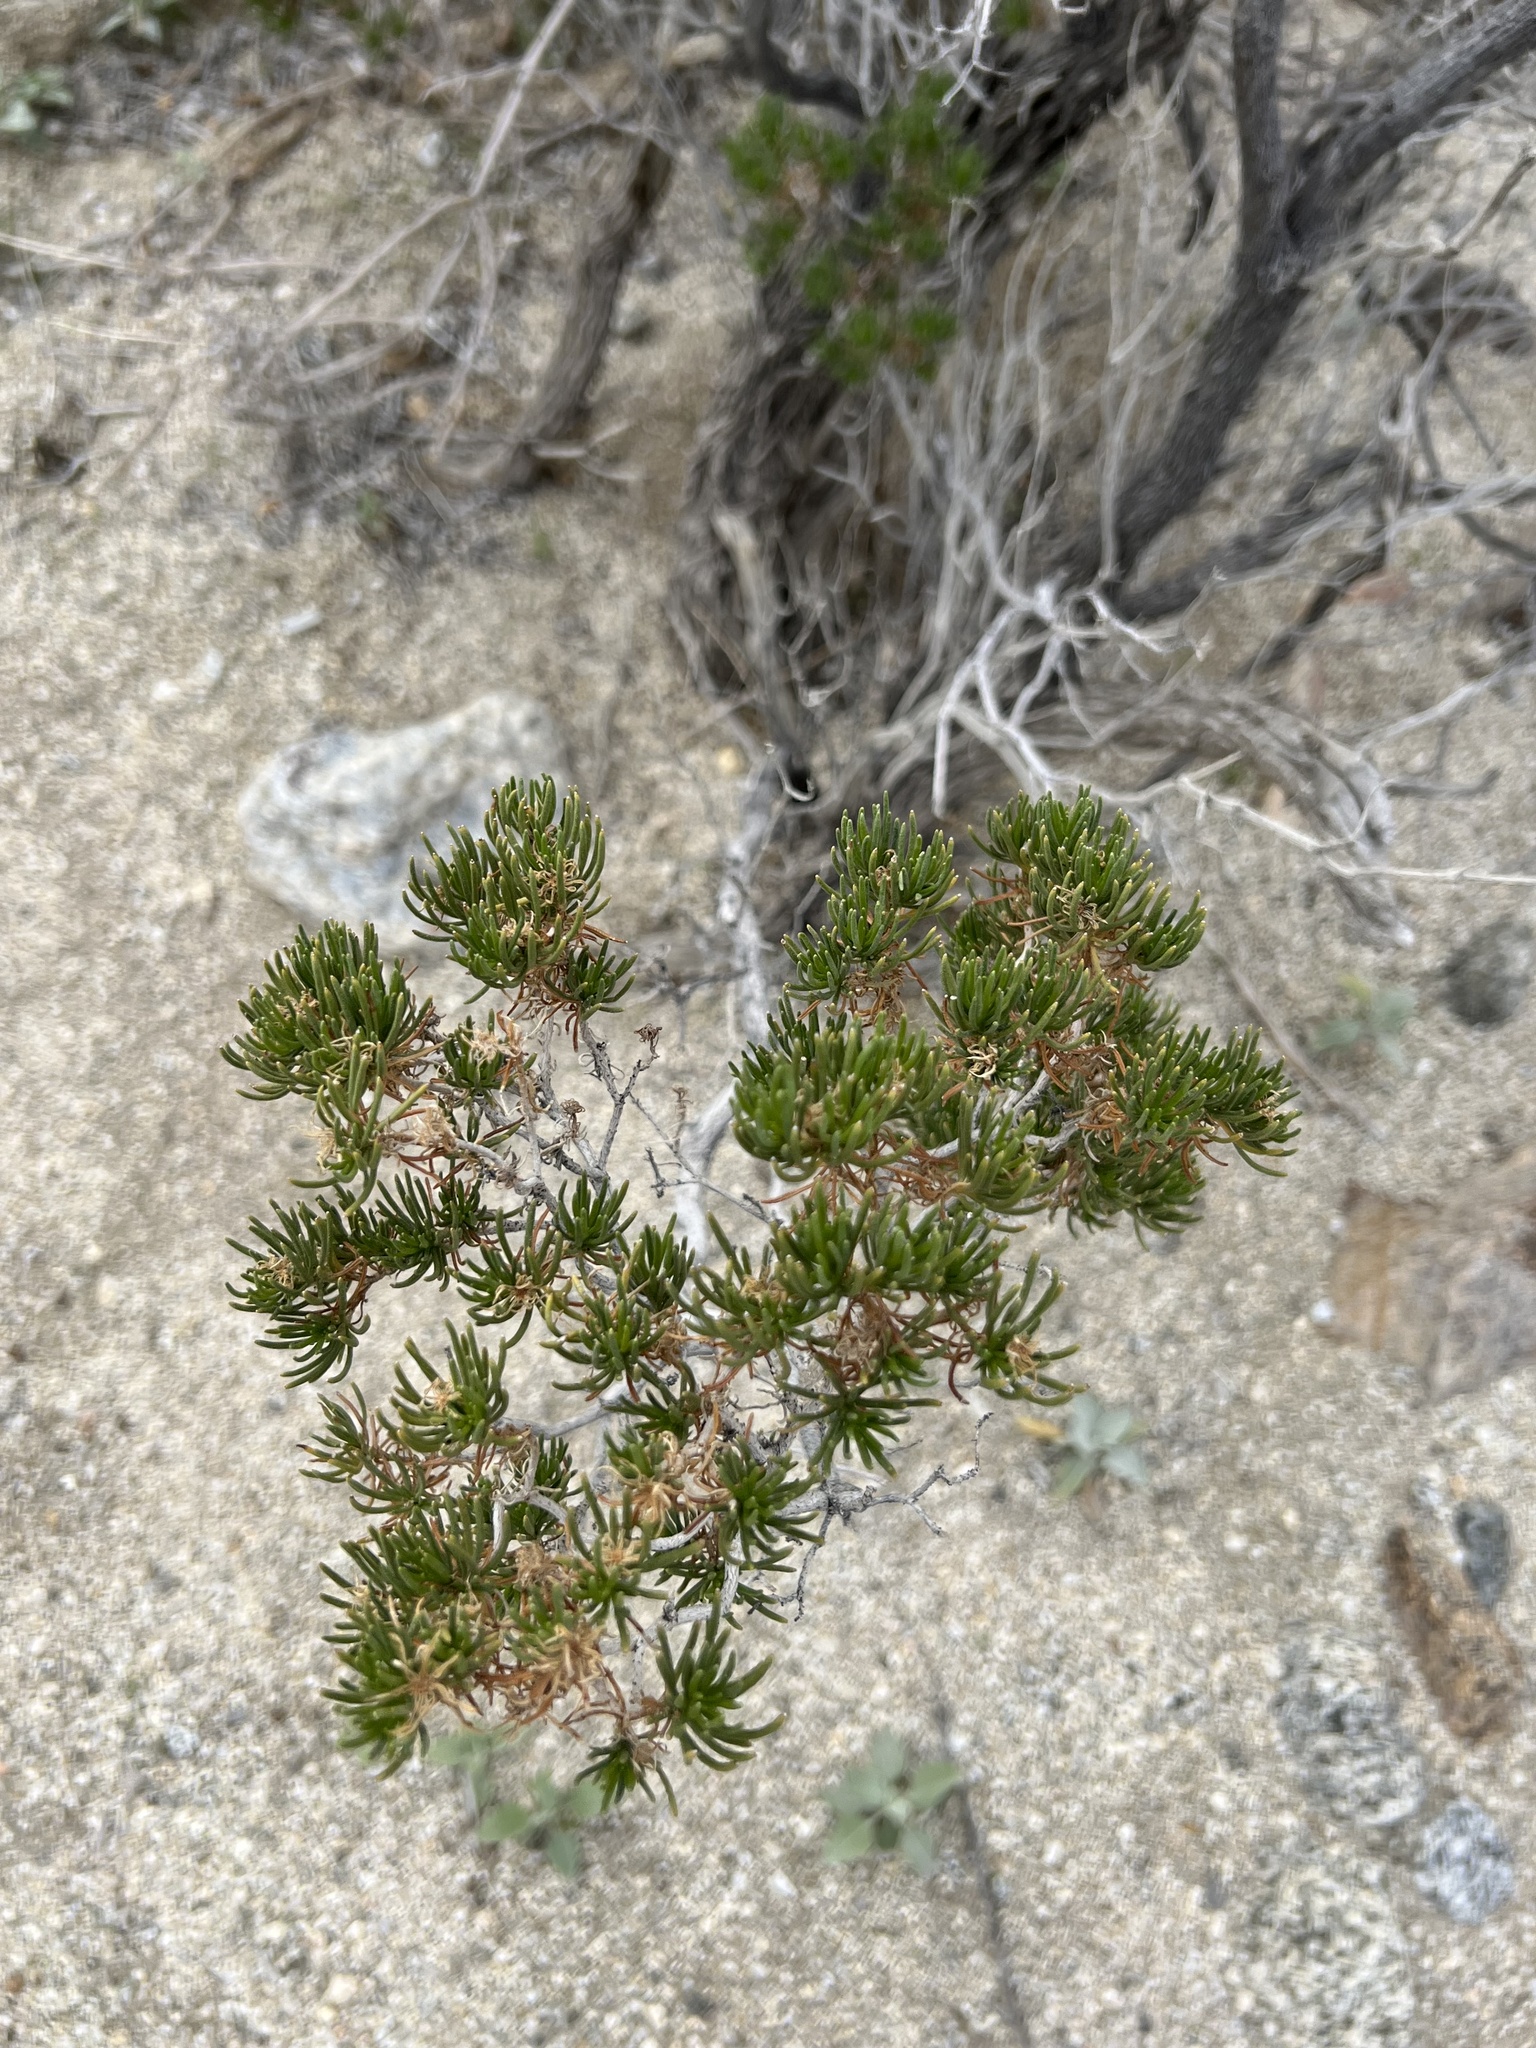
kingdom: Plantae
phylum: Tracheophyta
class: Magnoliopsida
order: Asterales
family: Asteraceae
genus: Peucephyllum
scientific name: Peucephyllum schottii
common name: Pygmy-cedar
